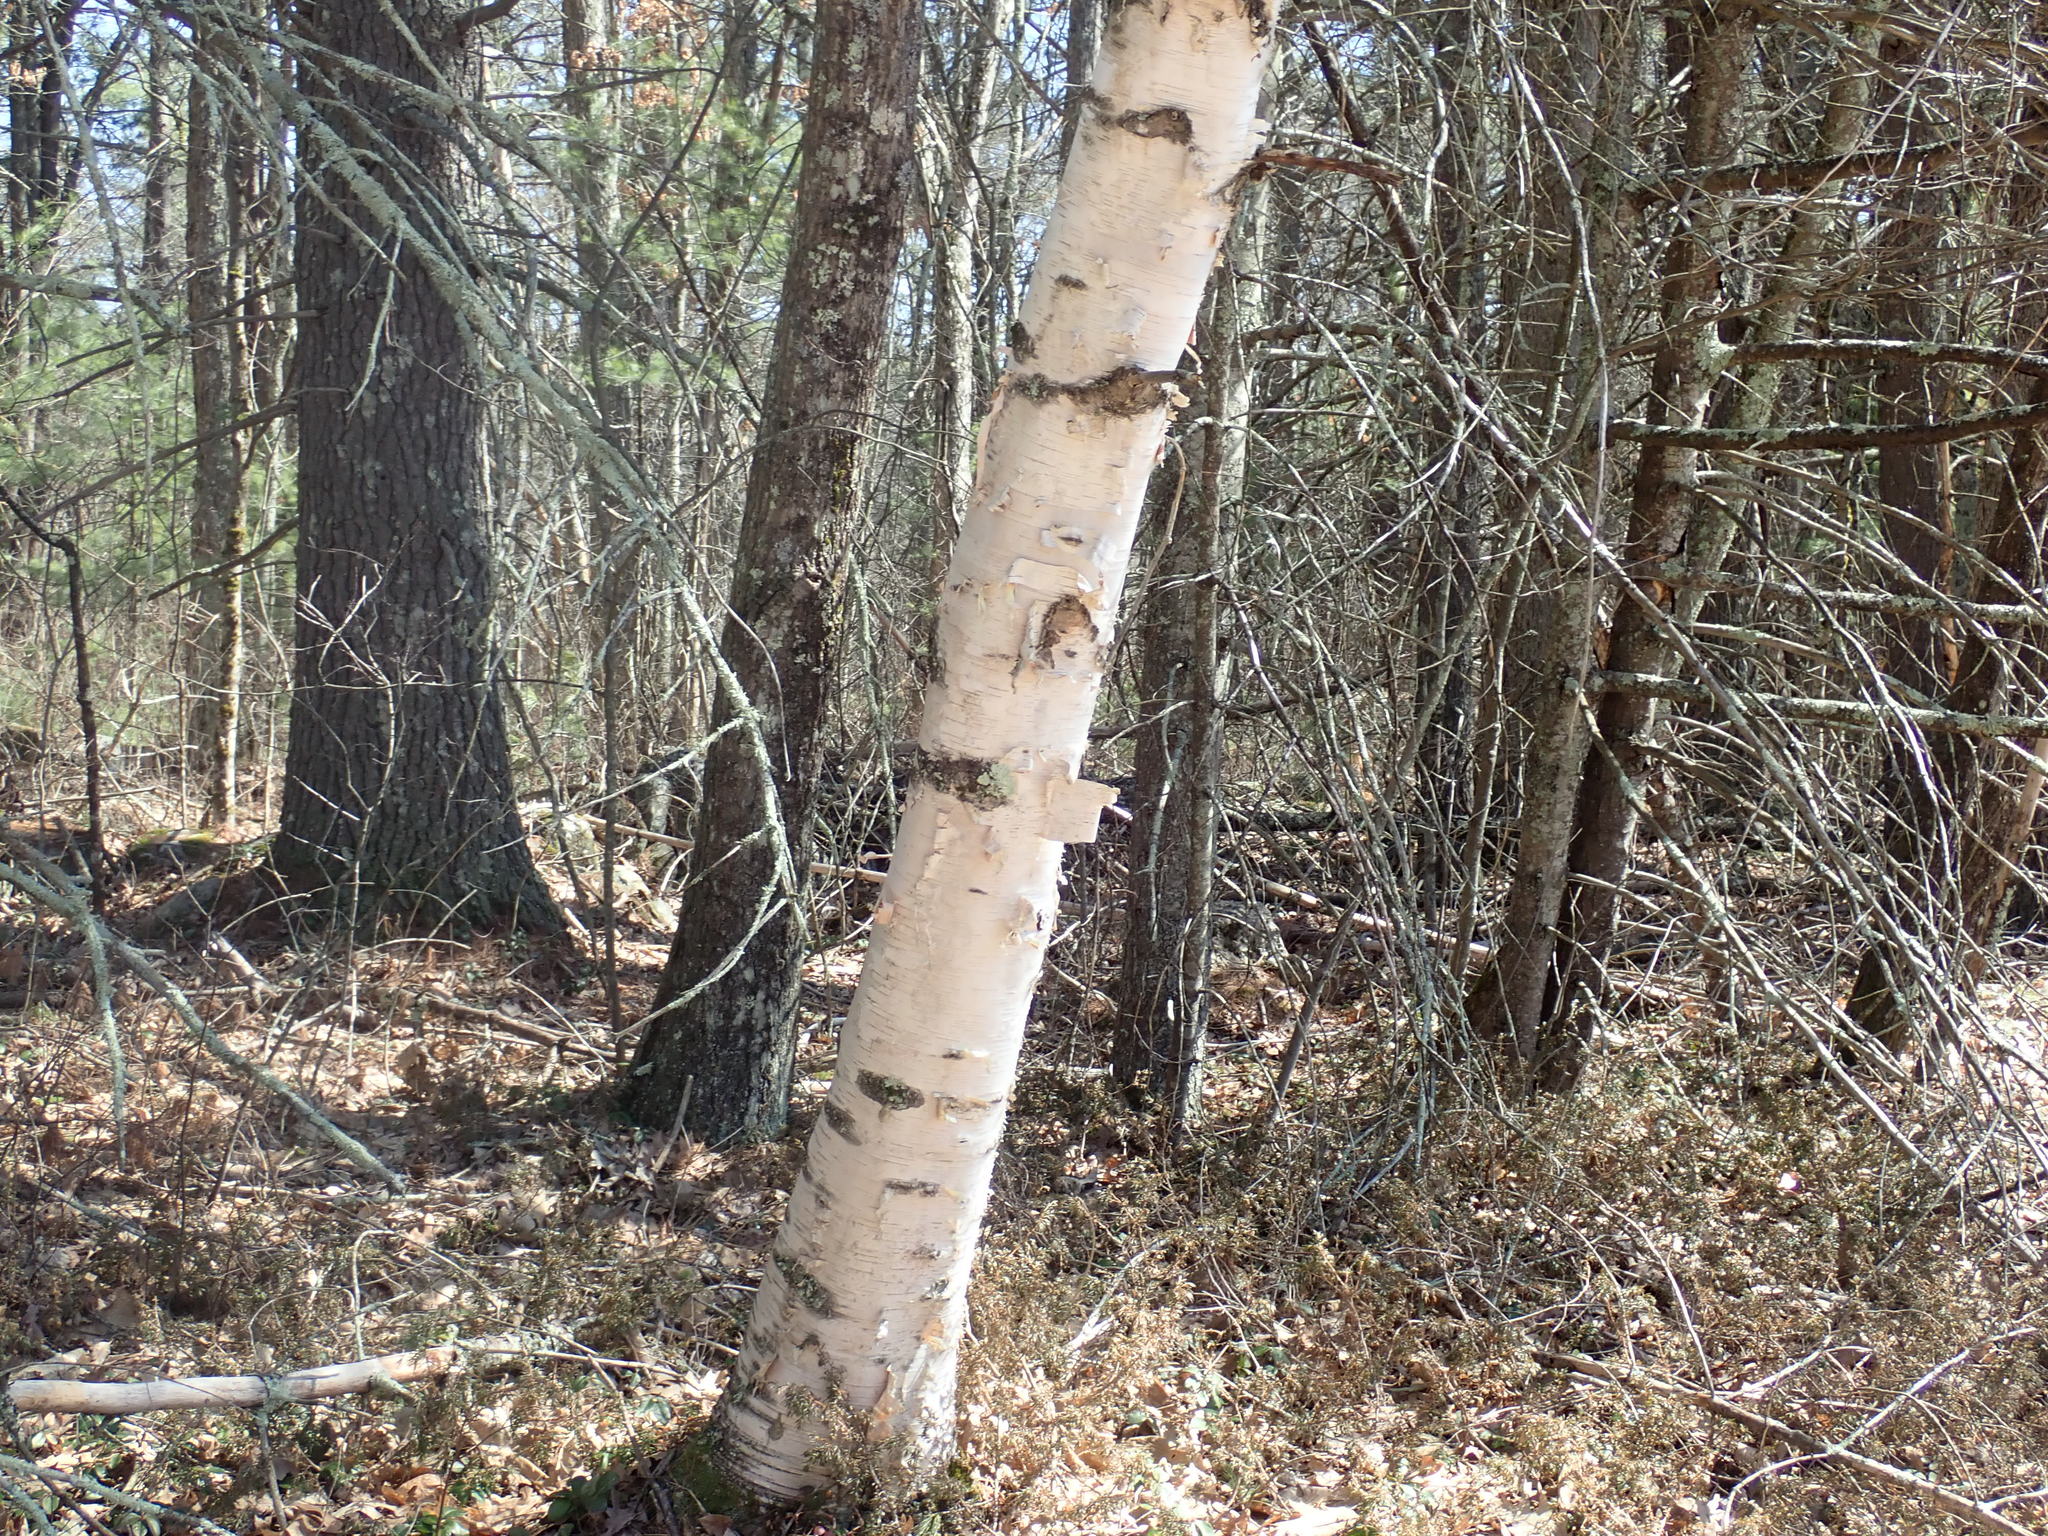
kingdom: Plantae
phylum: Tracheophyta
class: Magnoliopsida
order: Fagales
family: Betulaceae
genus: Betula
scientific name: Betula papyrifera
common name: Paper birch
